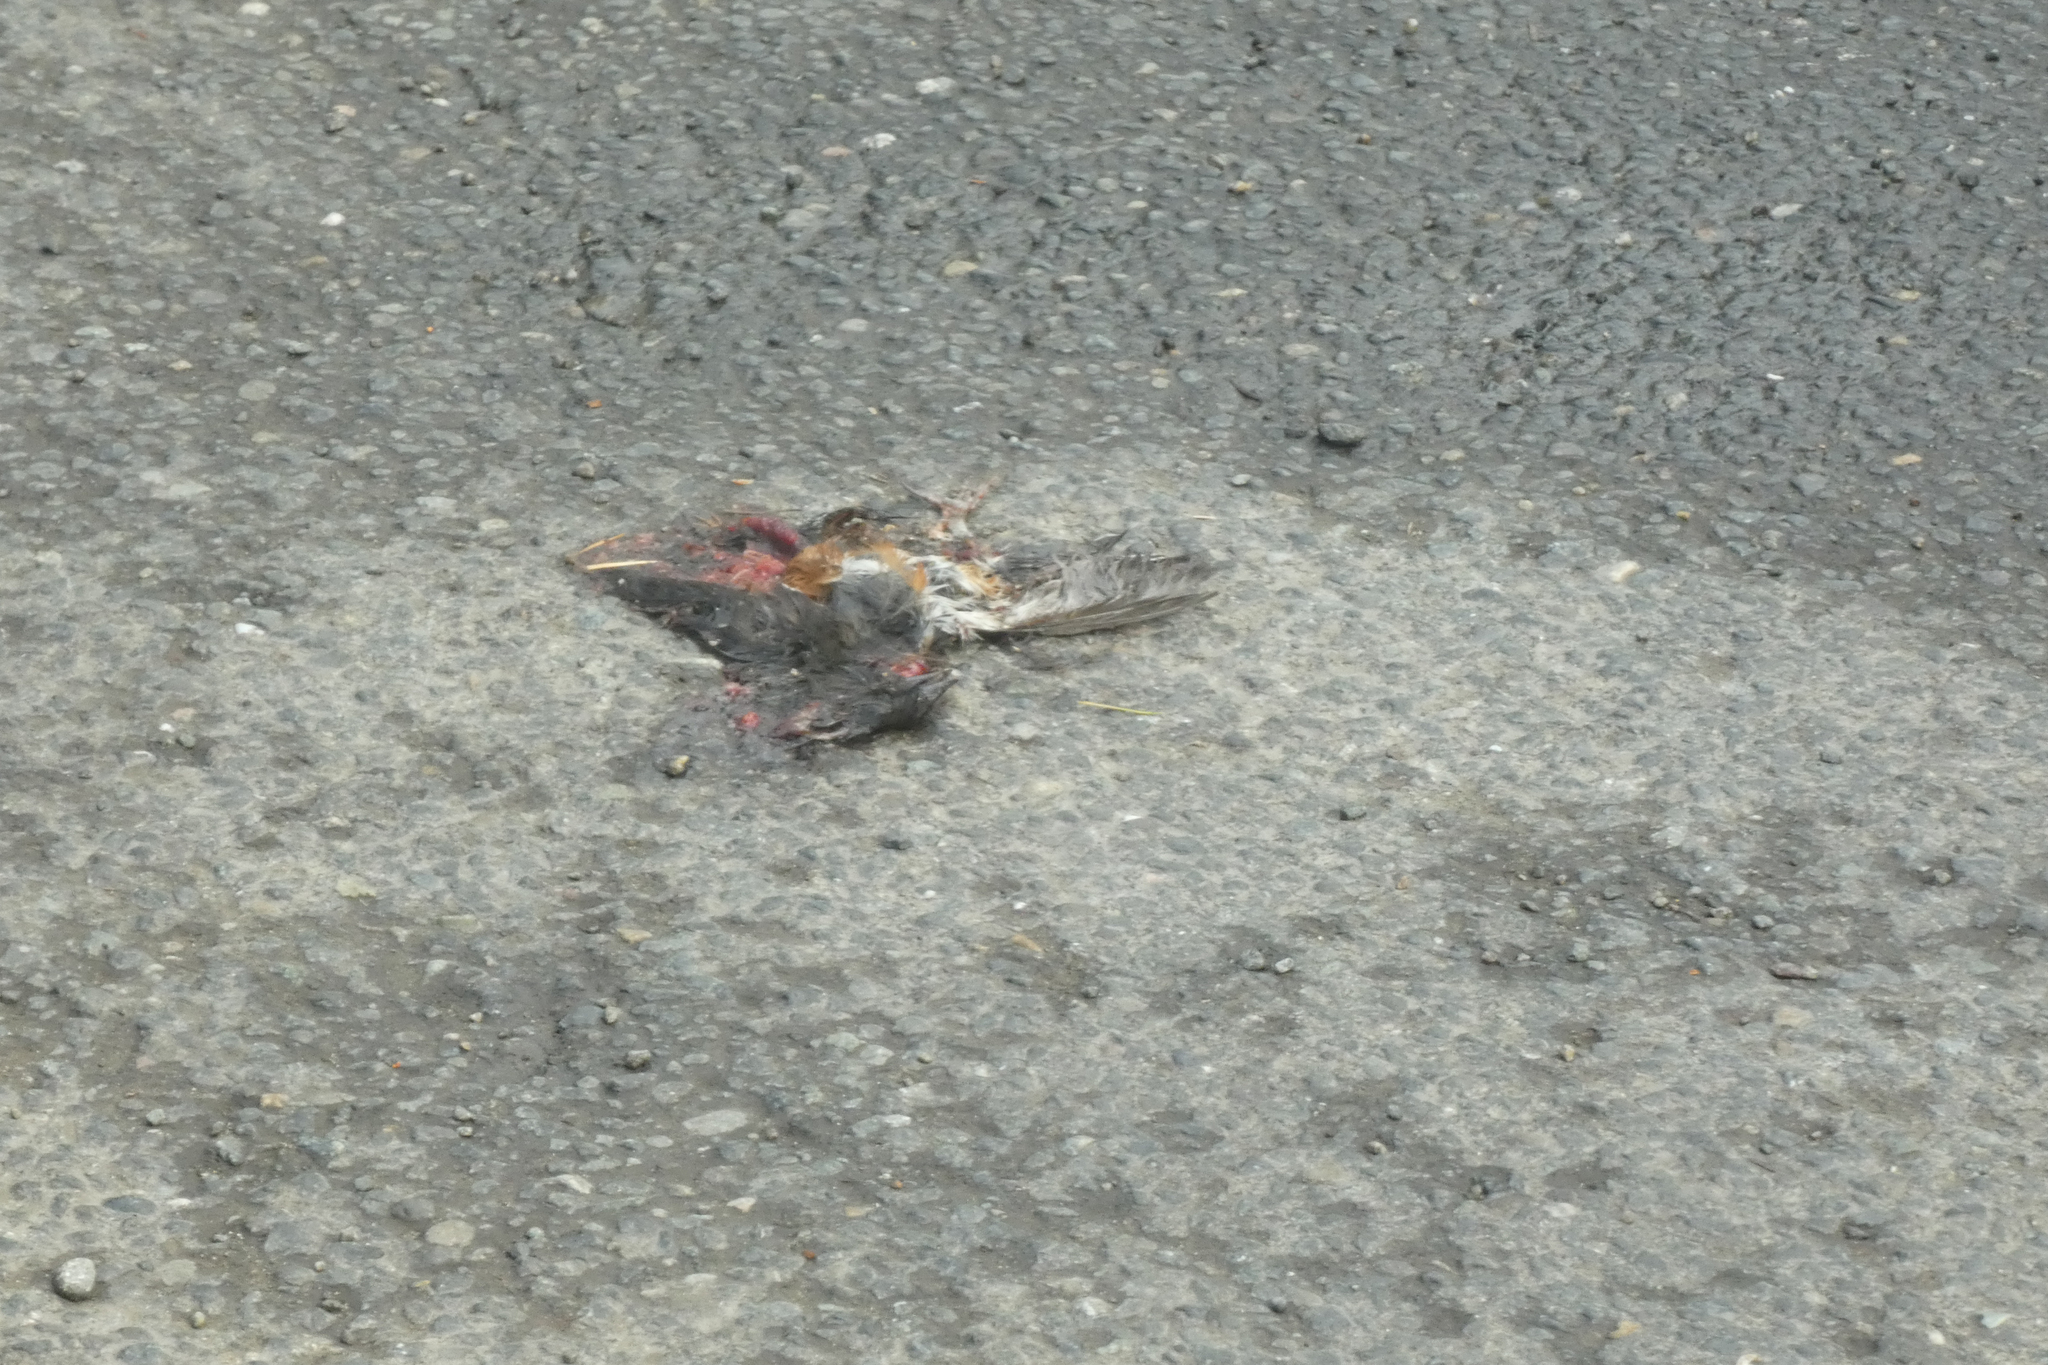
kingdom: Animalia
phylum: Chordata
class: Aves
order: Passeriformes
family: Passerellidae
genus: Pipilo
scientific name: Pipilo maculatus
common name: Spotted towhee
